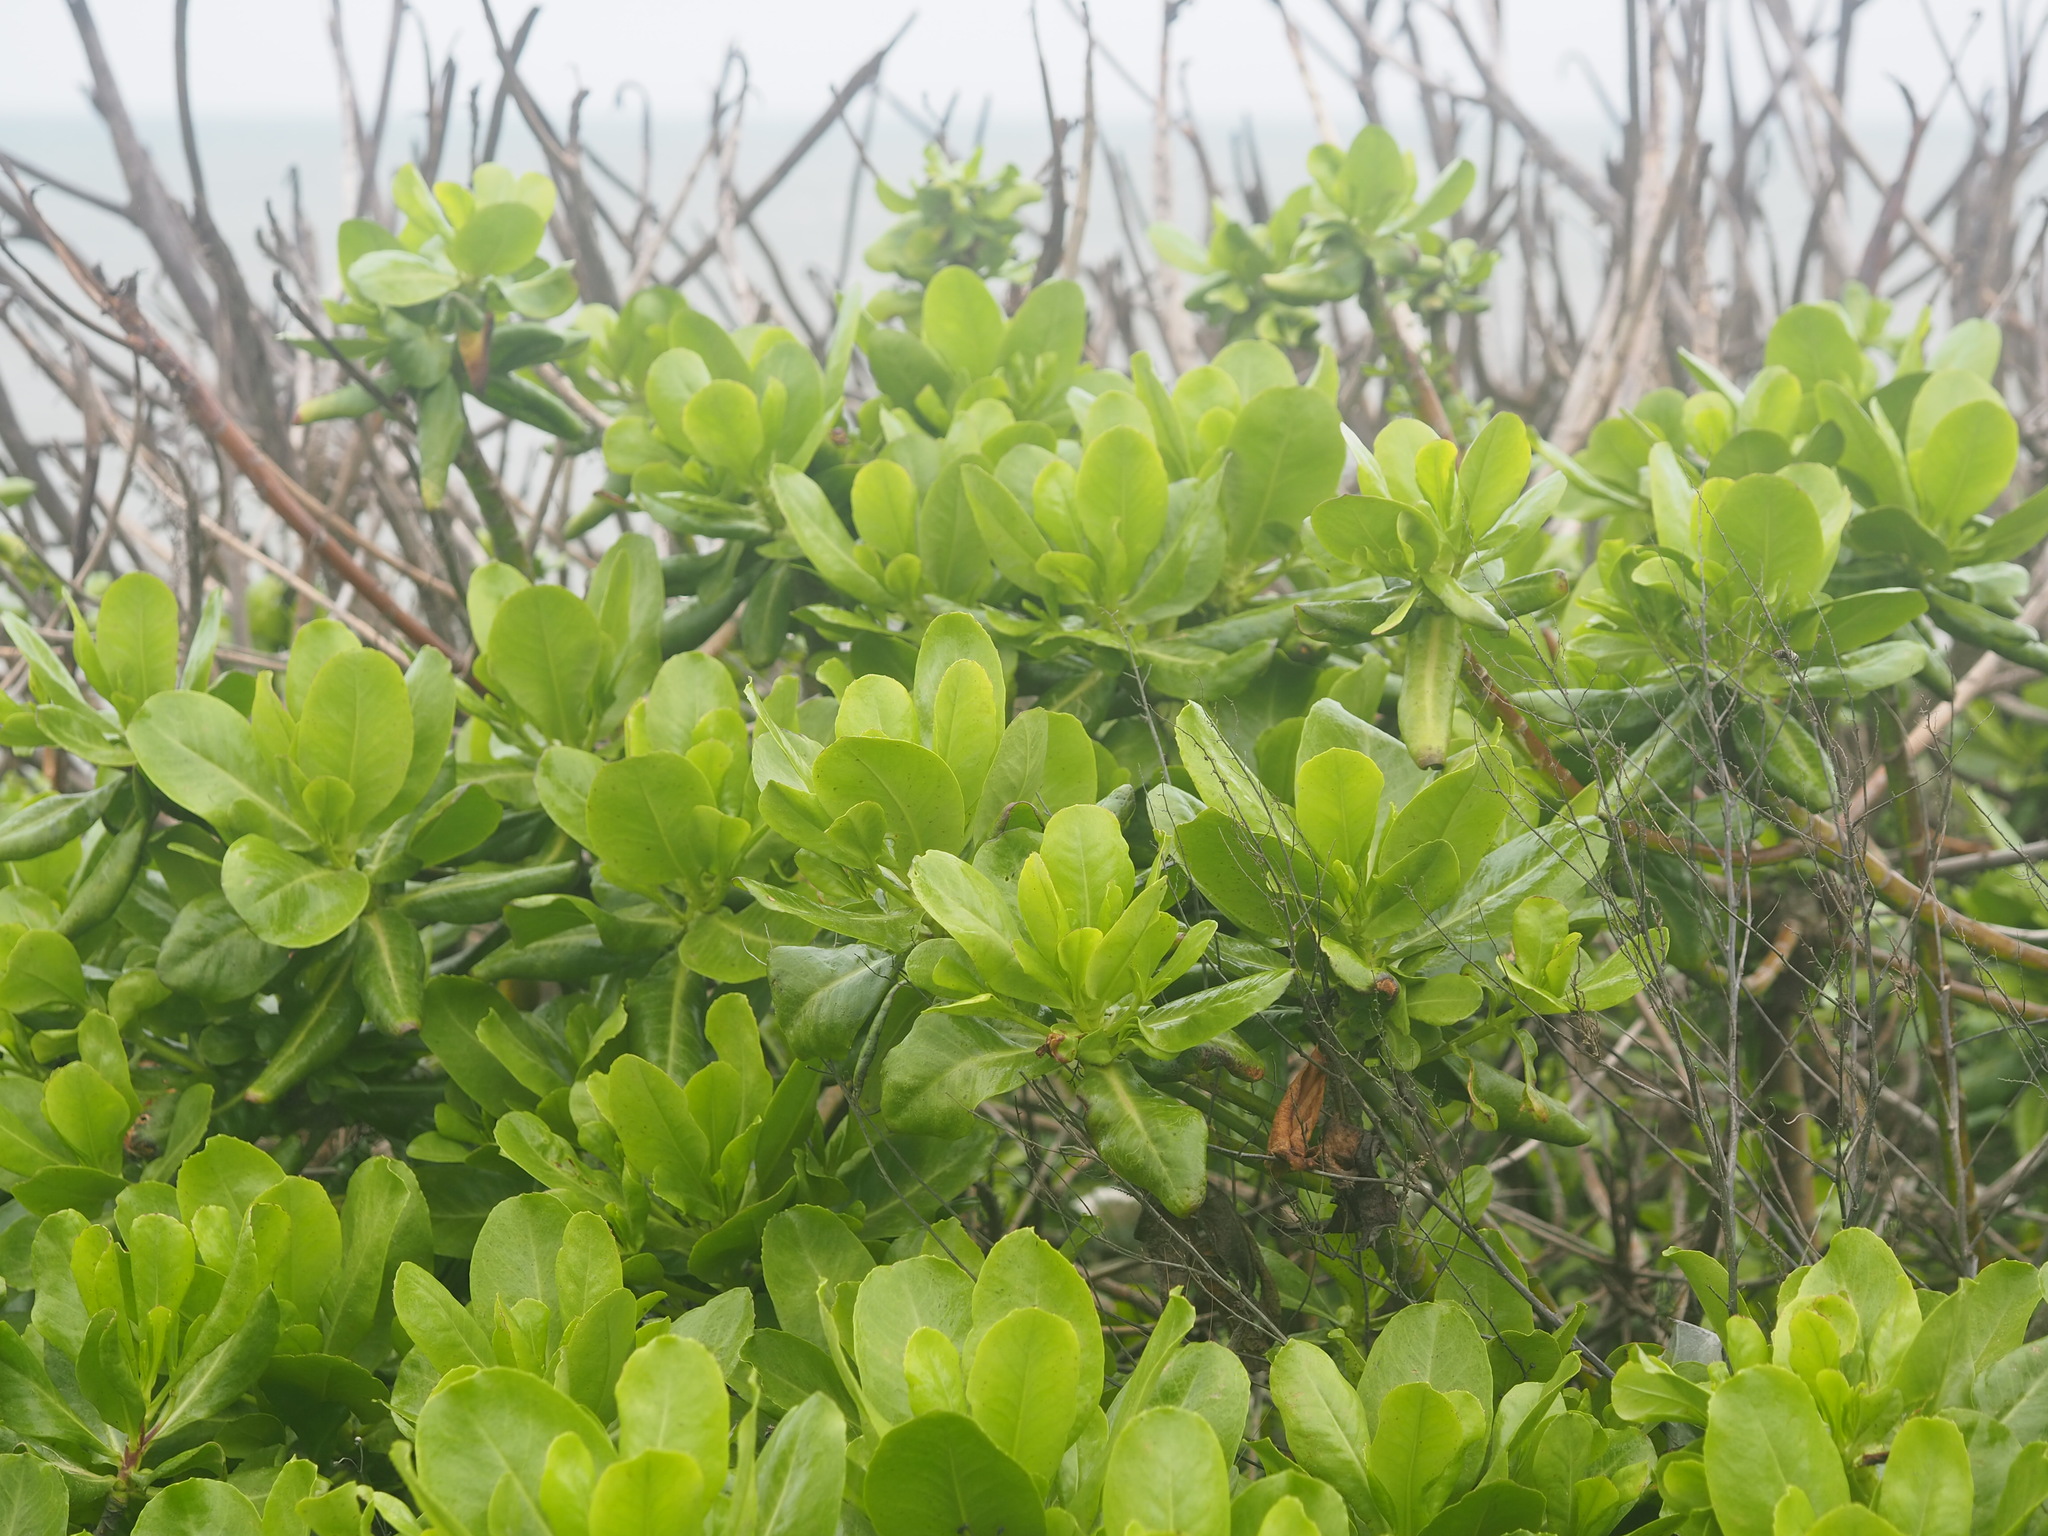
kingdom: Plantae
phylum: Tracheophyta
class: Magnoliopsida
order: Asterales
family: Goodeniaceae
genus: Scaevola
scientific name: Scaevola taccada
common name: Sea lettucetree
